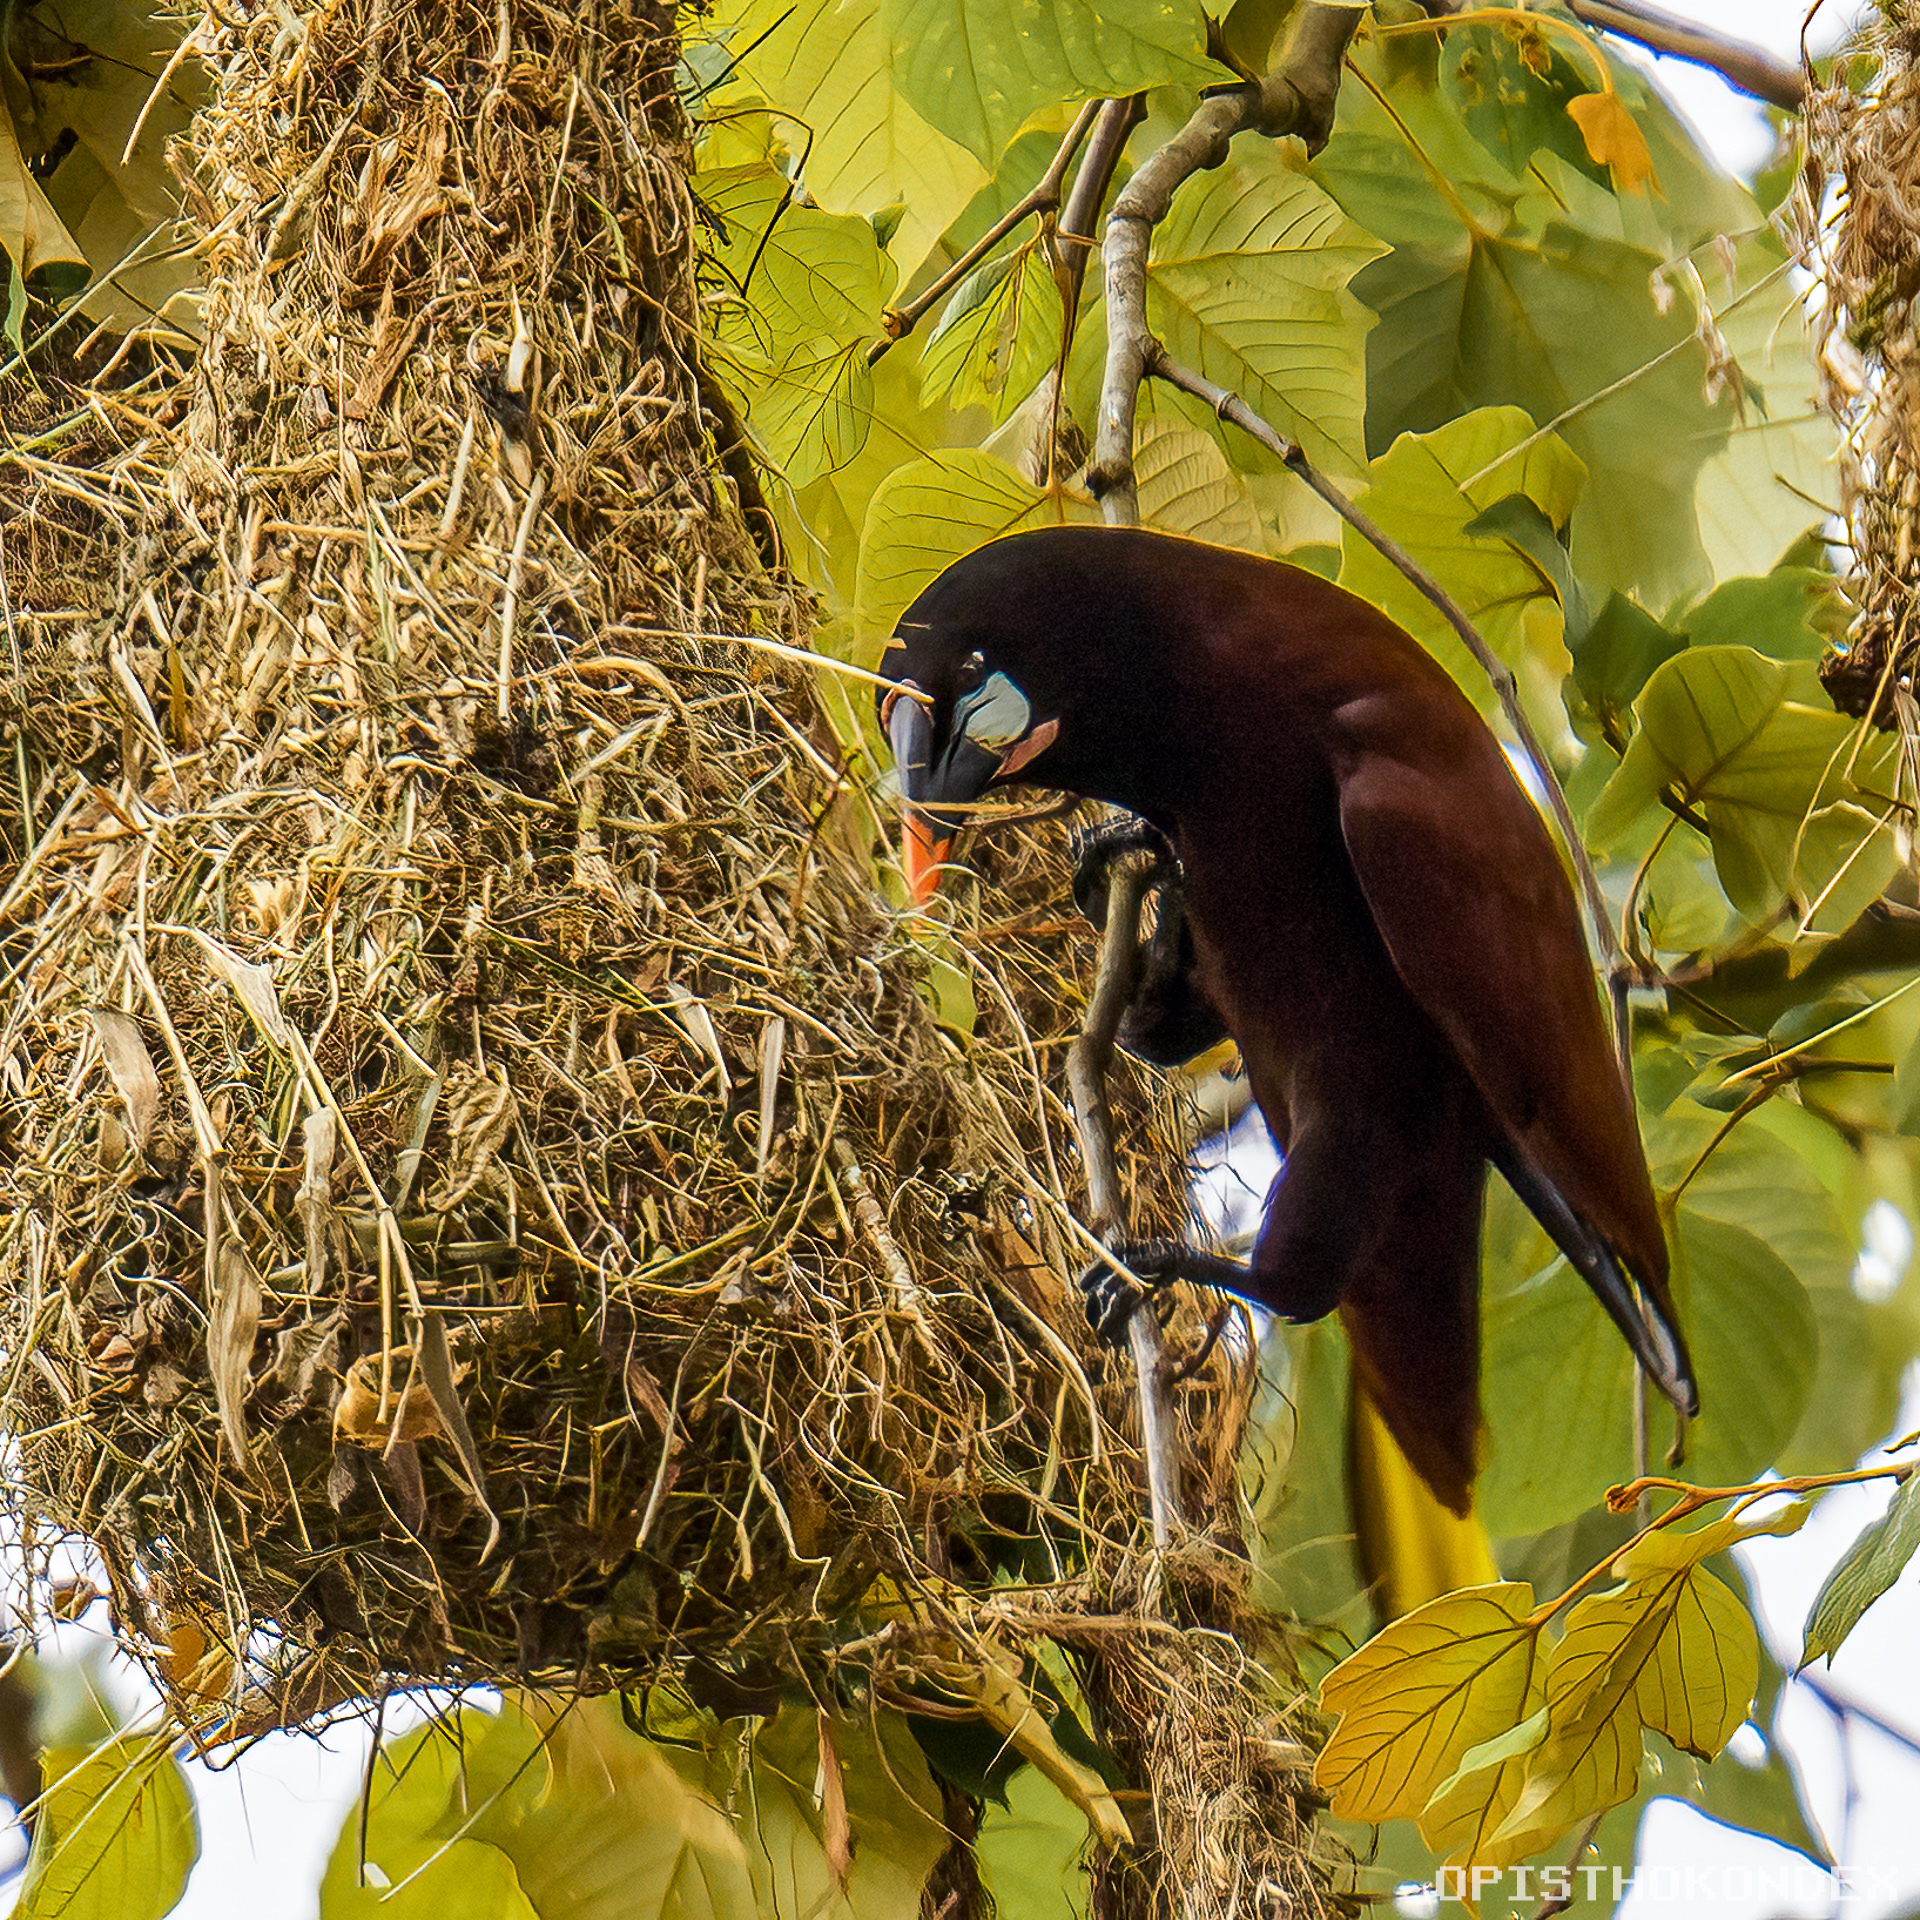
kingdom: Animalia
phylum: Chordata
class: Aves
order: Passeriformes
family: Icteridae
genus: Psarocolius
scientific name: Psarocolius montezuma
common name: Montezuma oropendola
